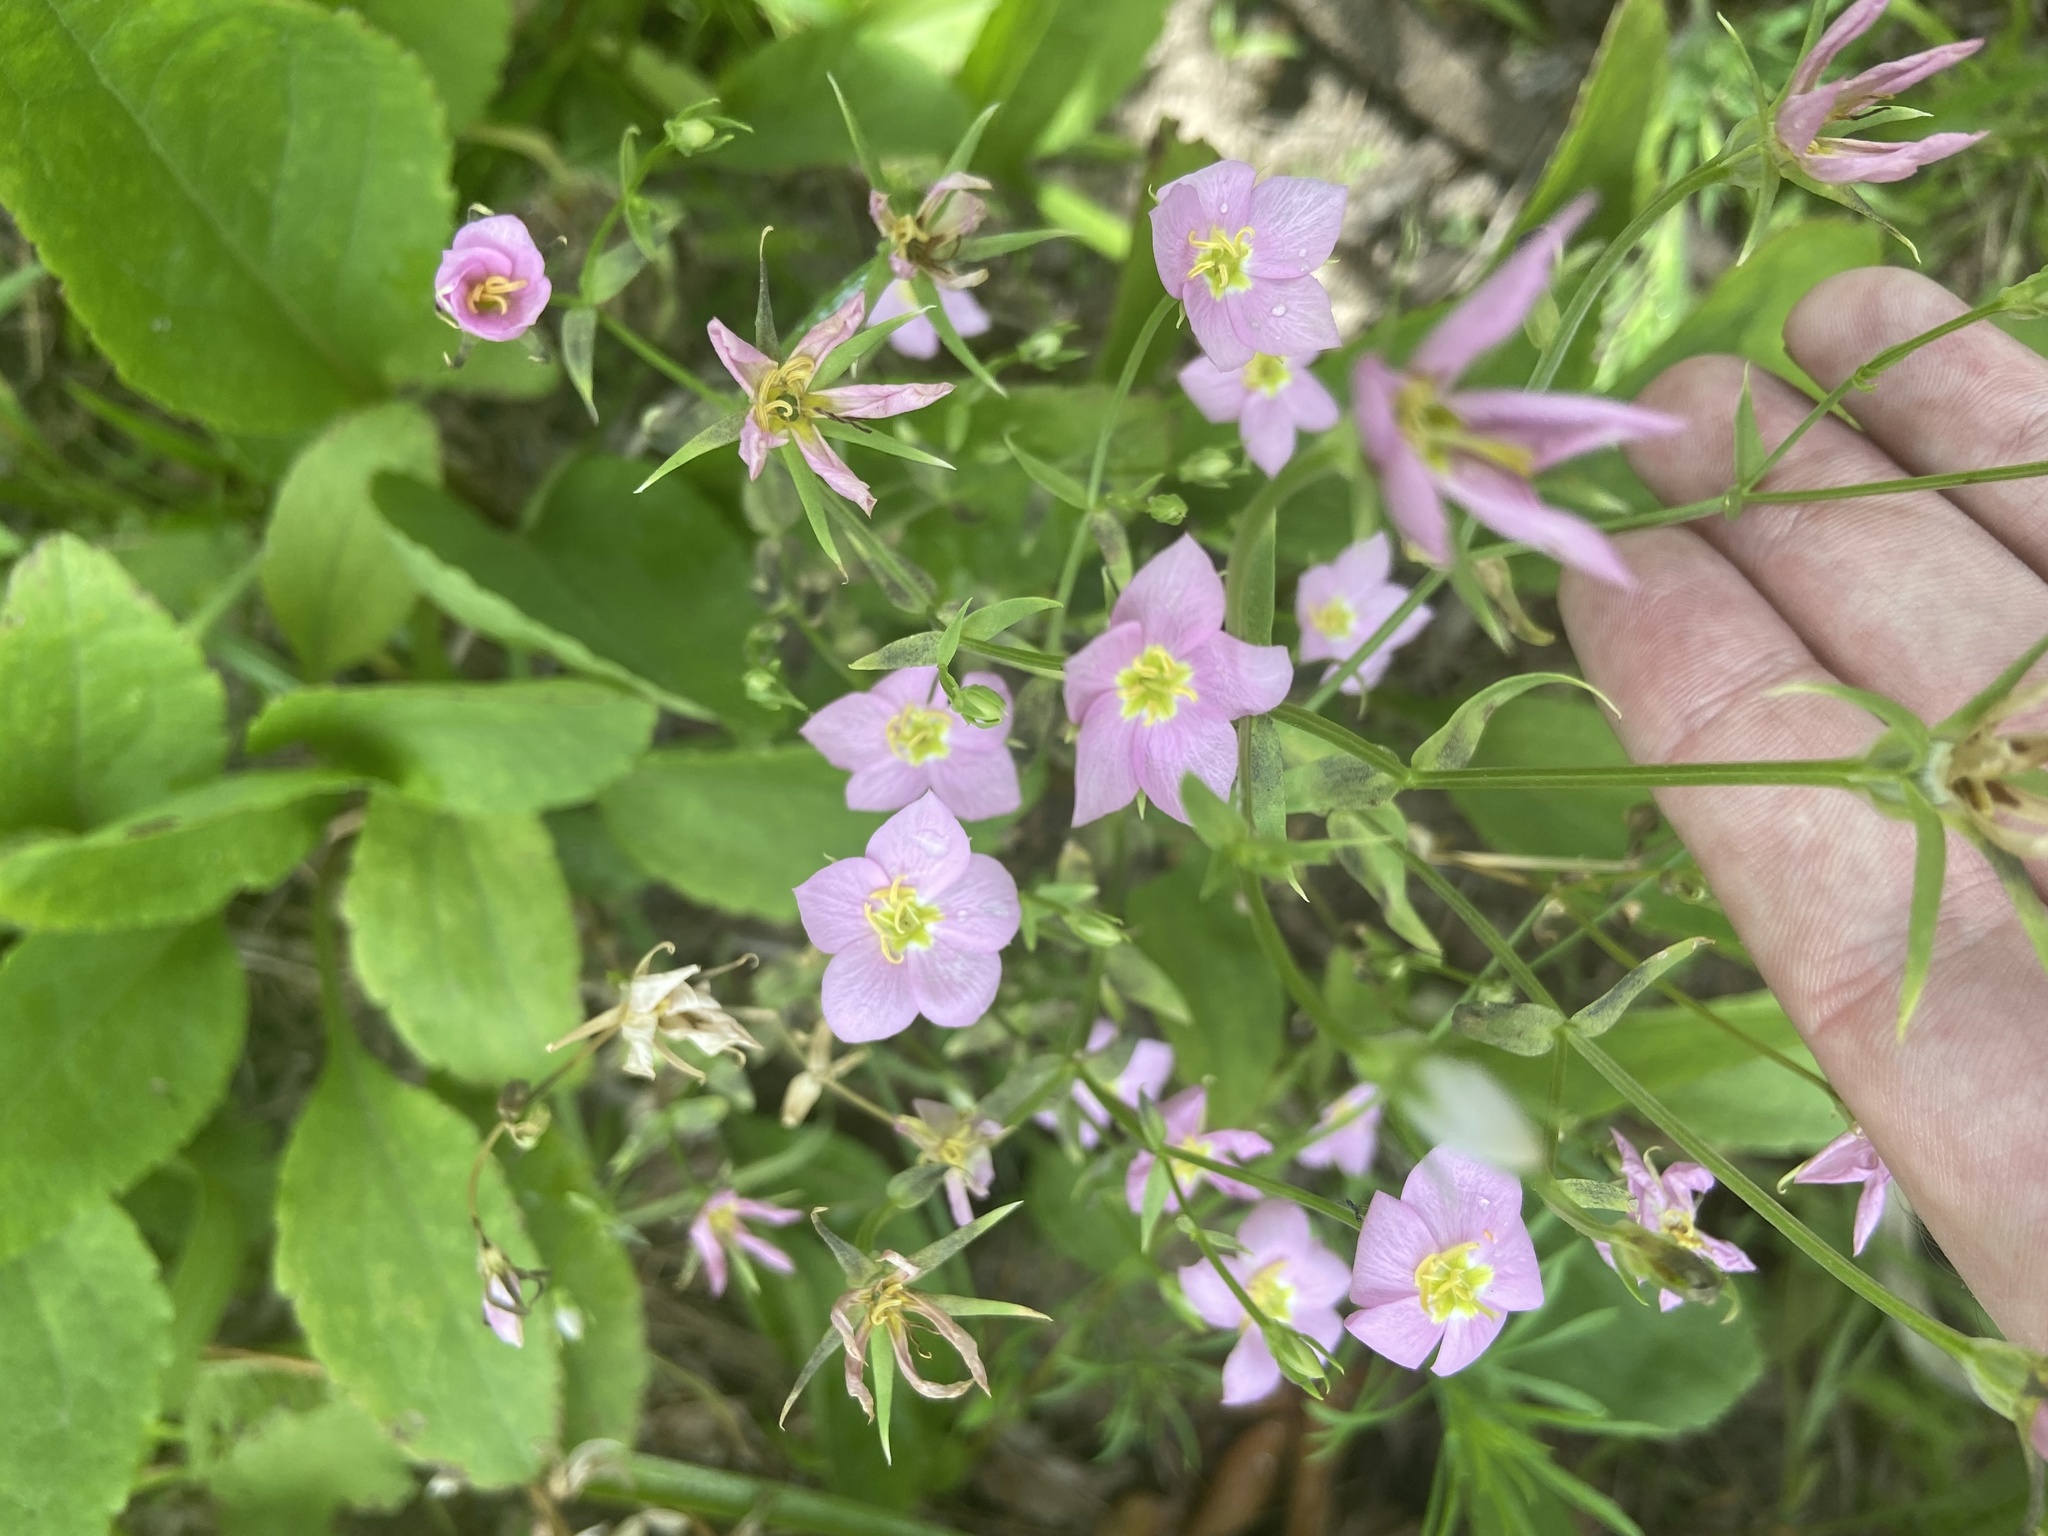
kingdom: Plantae
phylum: Tracheophyta
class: Magnoliopsida
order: Gentianales
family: Gentianaceae
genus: Sabatia
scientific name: Sabatia campestris
